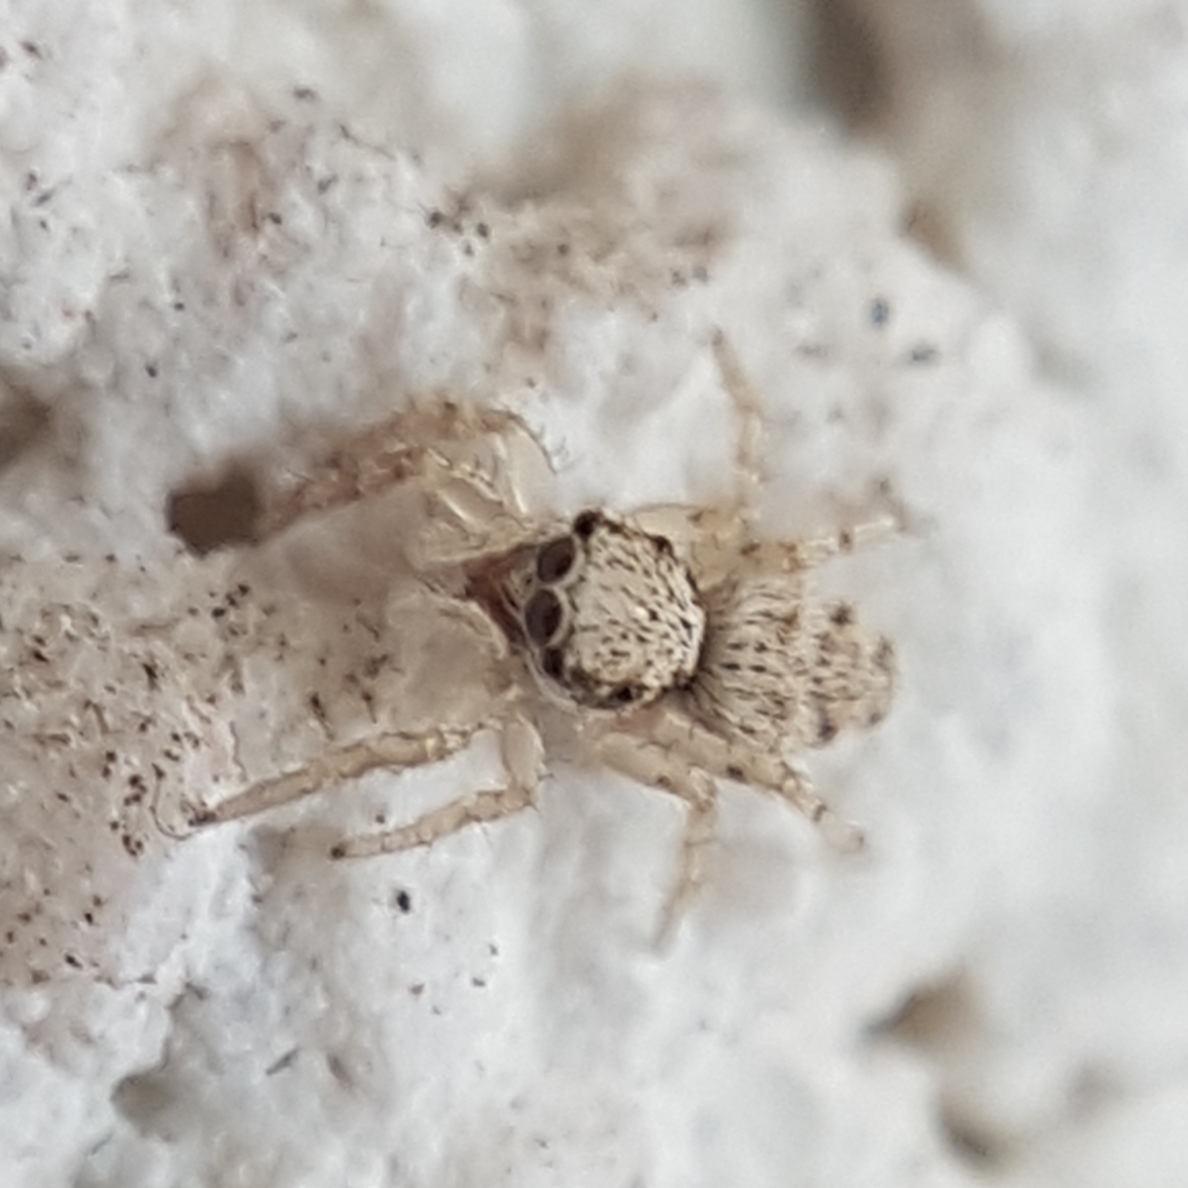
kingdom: Animalia
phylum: Arthropoda
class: Arachnida
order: Araneae
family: Salticidae
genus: Salticus
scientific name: Salticus mutabilis
